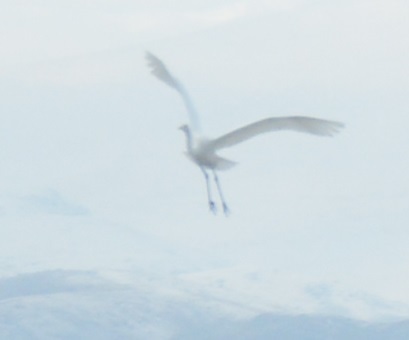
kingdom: Animalia
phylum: Chordata
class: Aves
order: Pelecaniformes
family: Ardeidae
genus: Ardea
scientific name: Ardea alba
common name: Great egret
